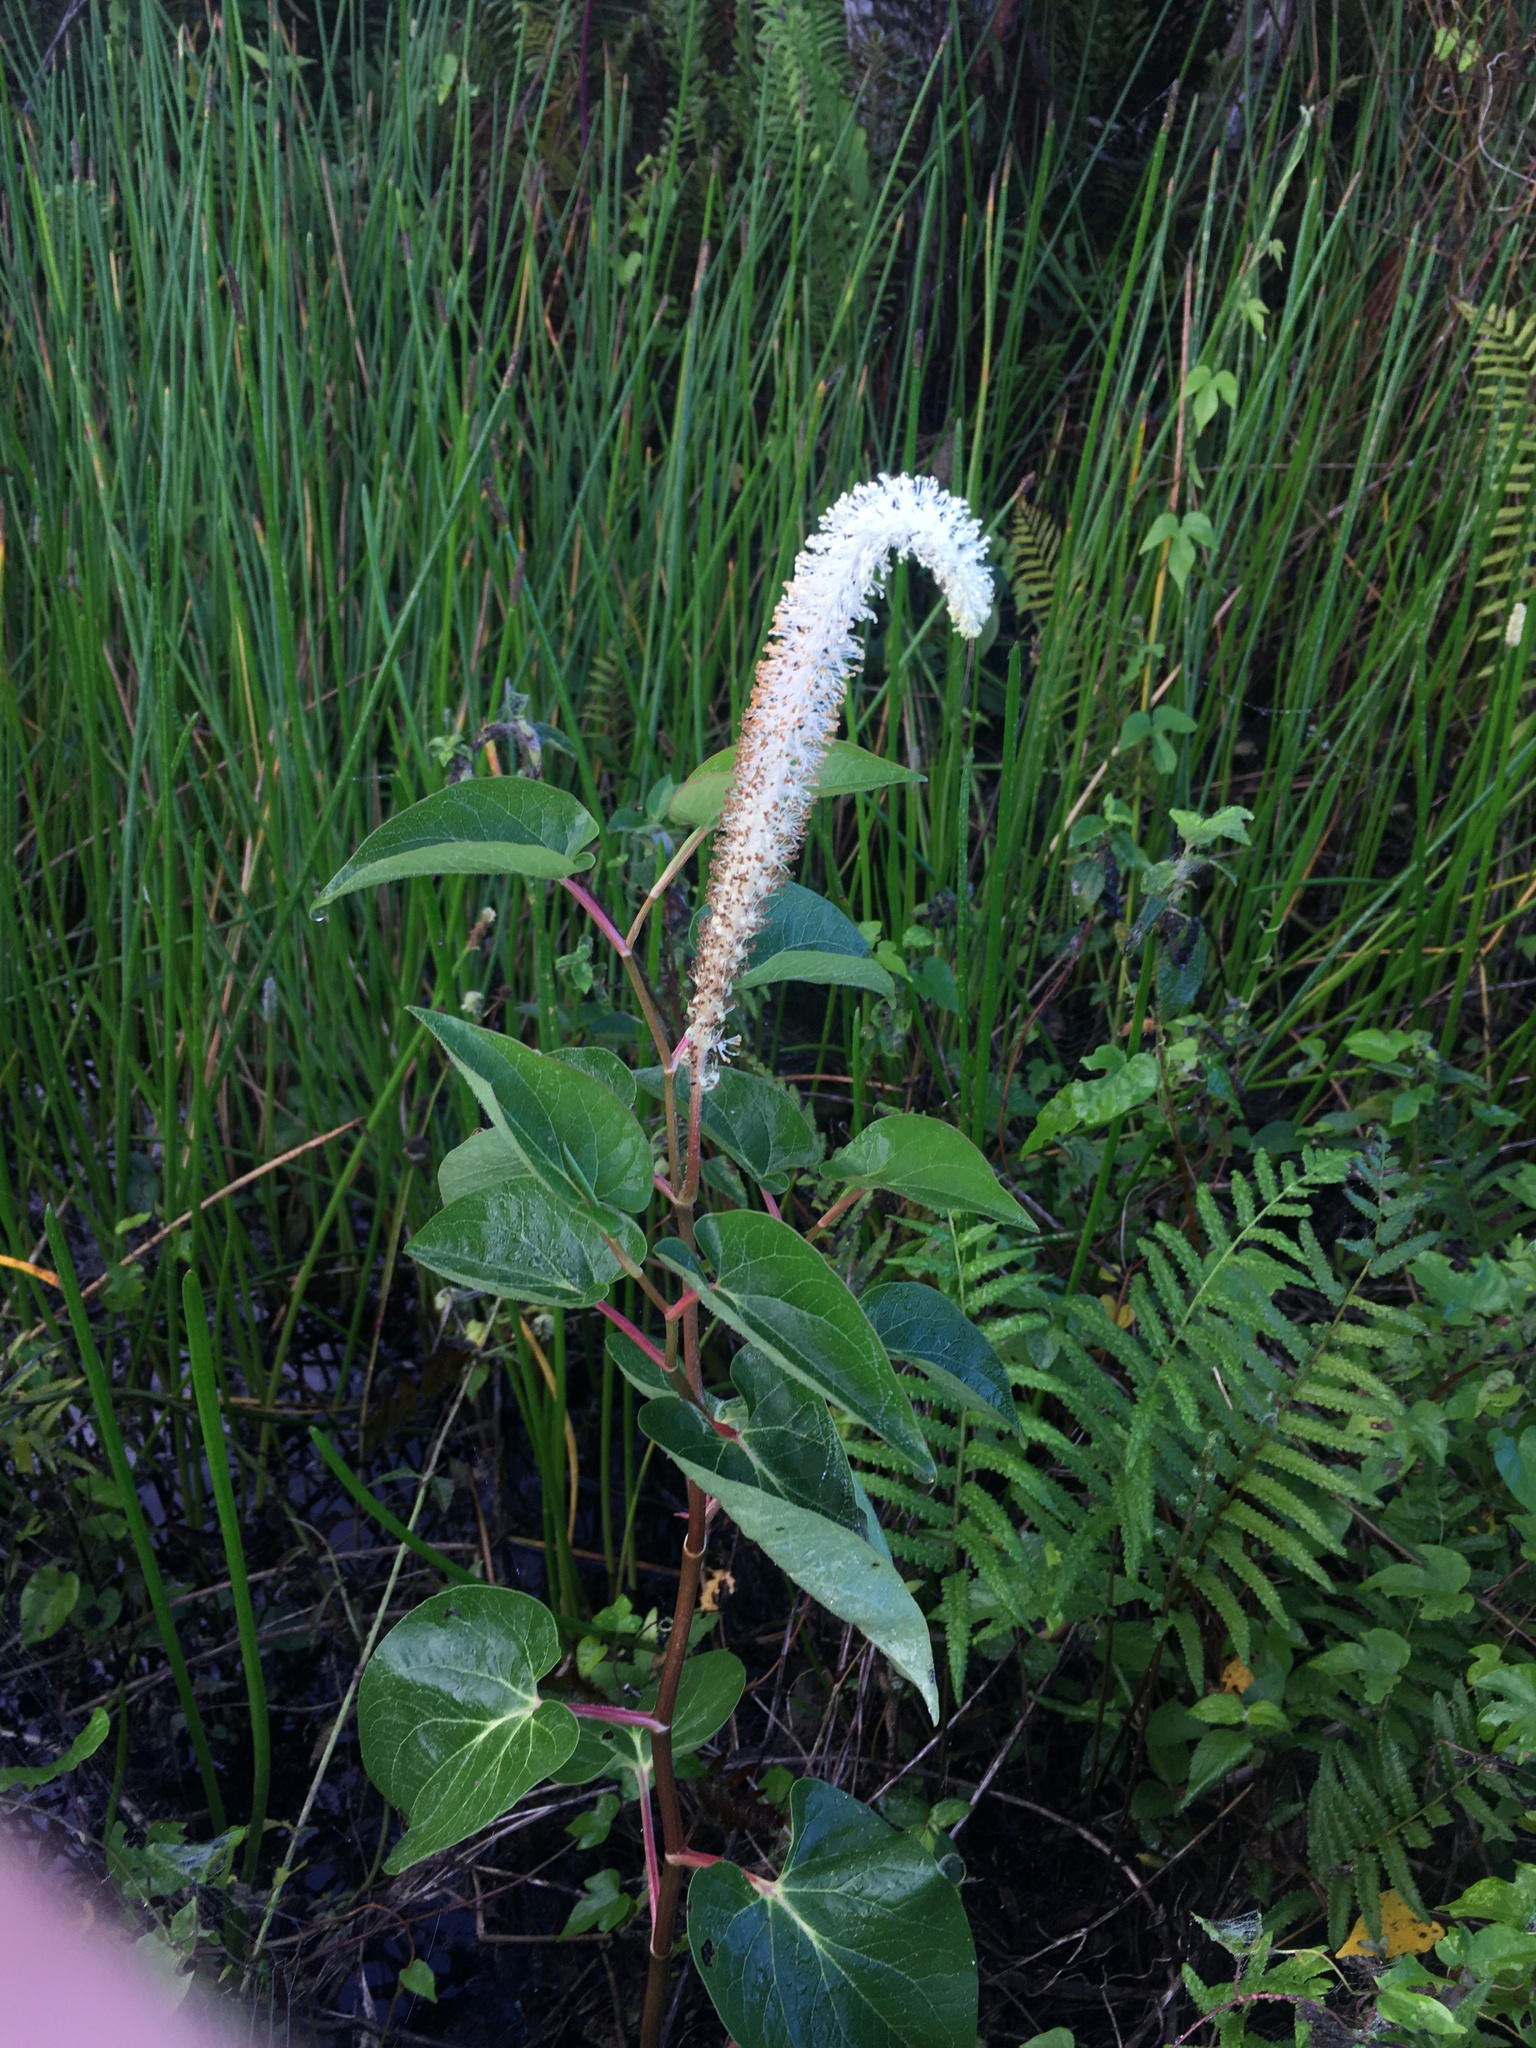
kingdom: Plantae
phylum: Tracheophyta
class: Magnoliopsida
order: Piperales
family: Saururaceae
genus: Saururus
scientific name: Saururus cernuus
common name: Lizard's-tail
